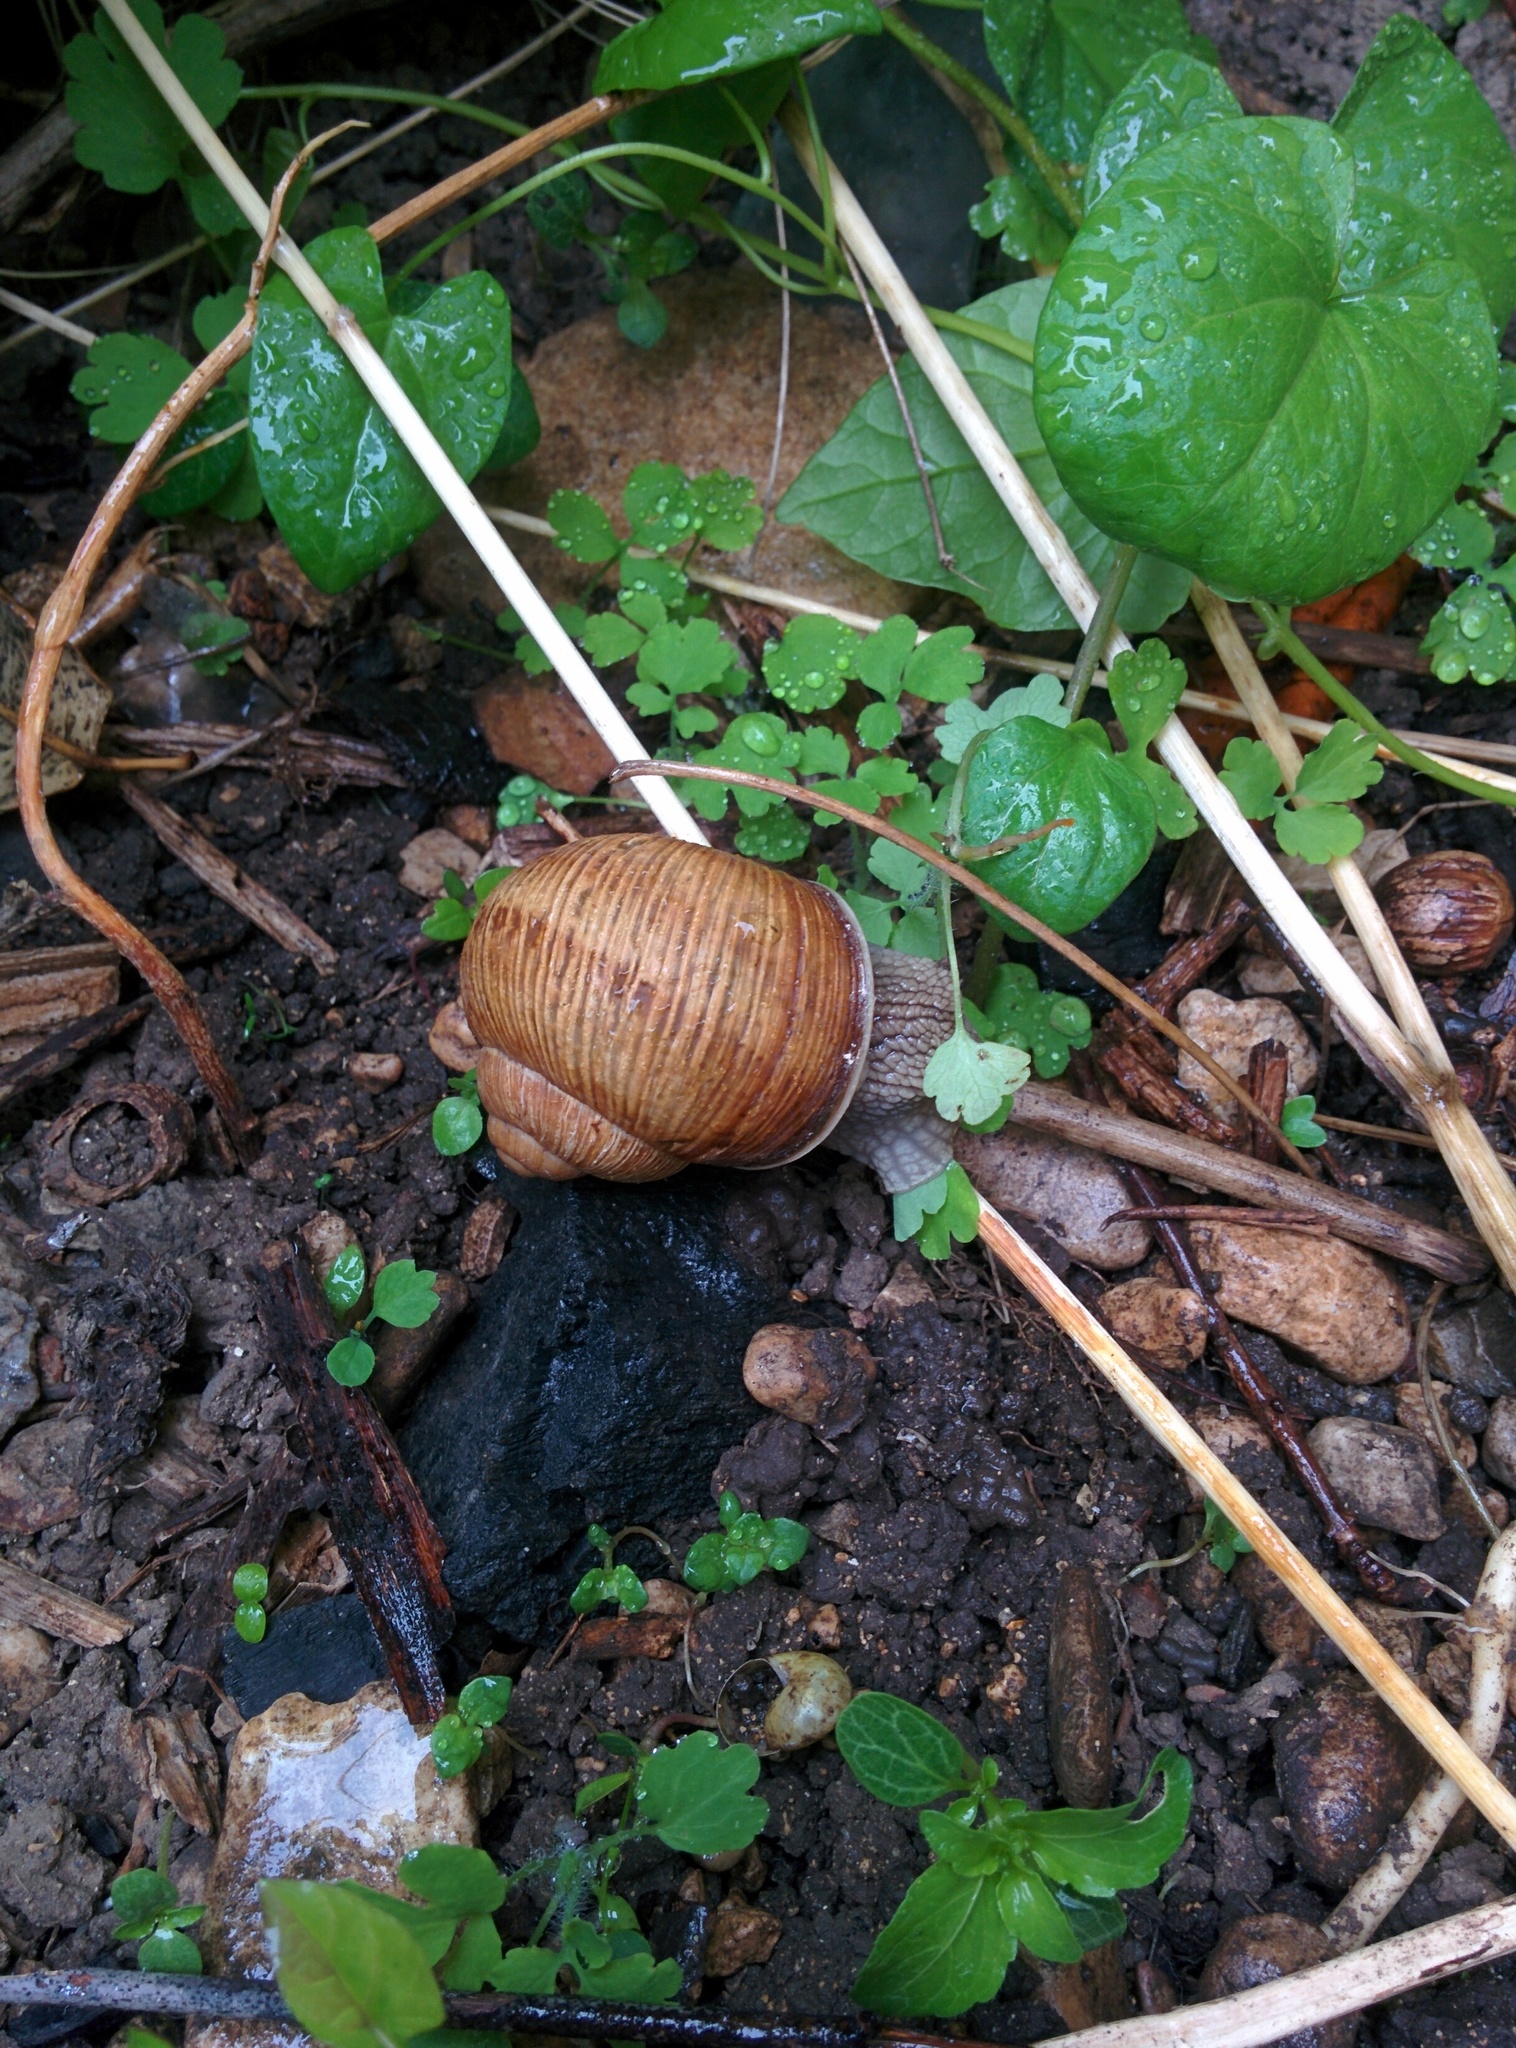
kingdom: Animalia
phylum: Mollusca
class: Gastropoda
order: Stylommatophora
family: Helicidae
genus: Helix
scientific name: Helix pomatia
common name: Roman snail
